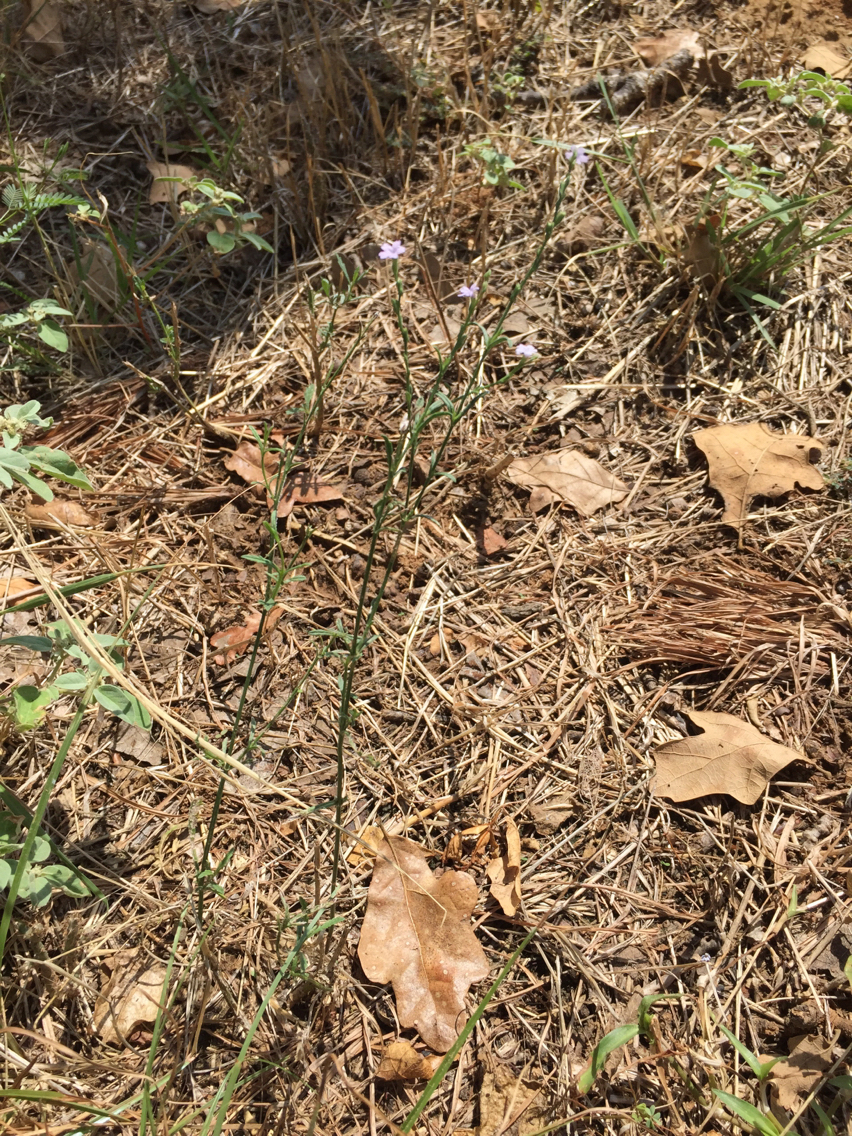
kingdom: Plantae
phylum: Tracheophyta
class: Magnoliopsida
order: Lamiales
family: Verbenaceae
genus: Verbena
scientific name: Verbena halei
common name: Texas vervain
